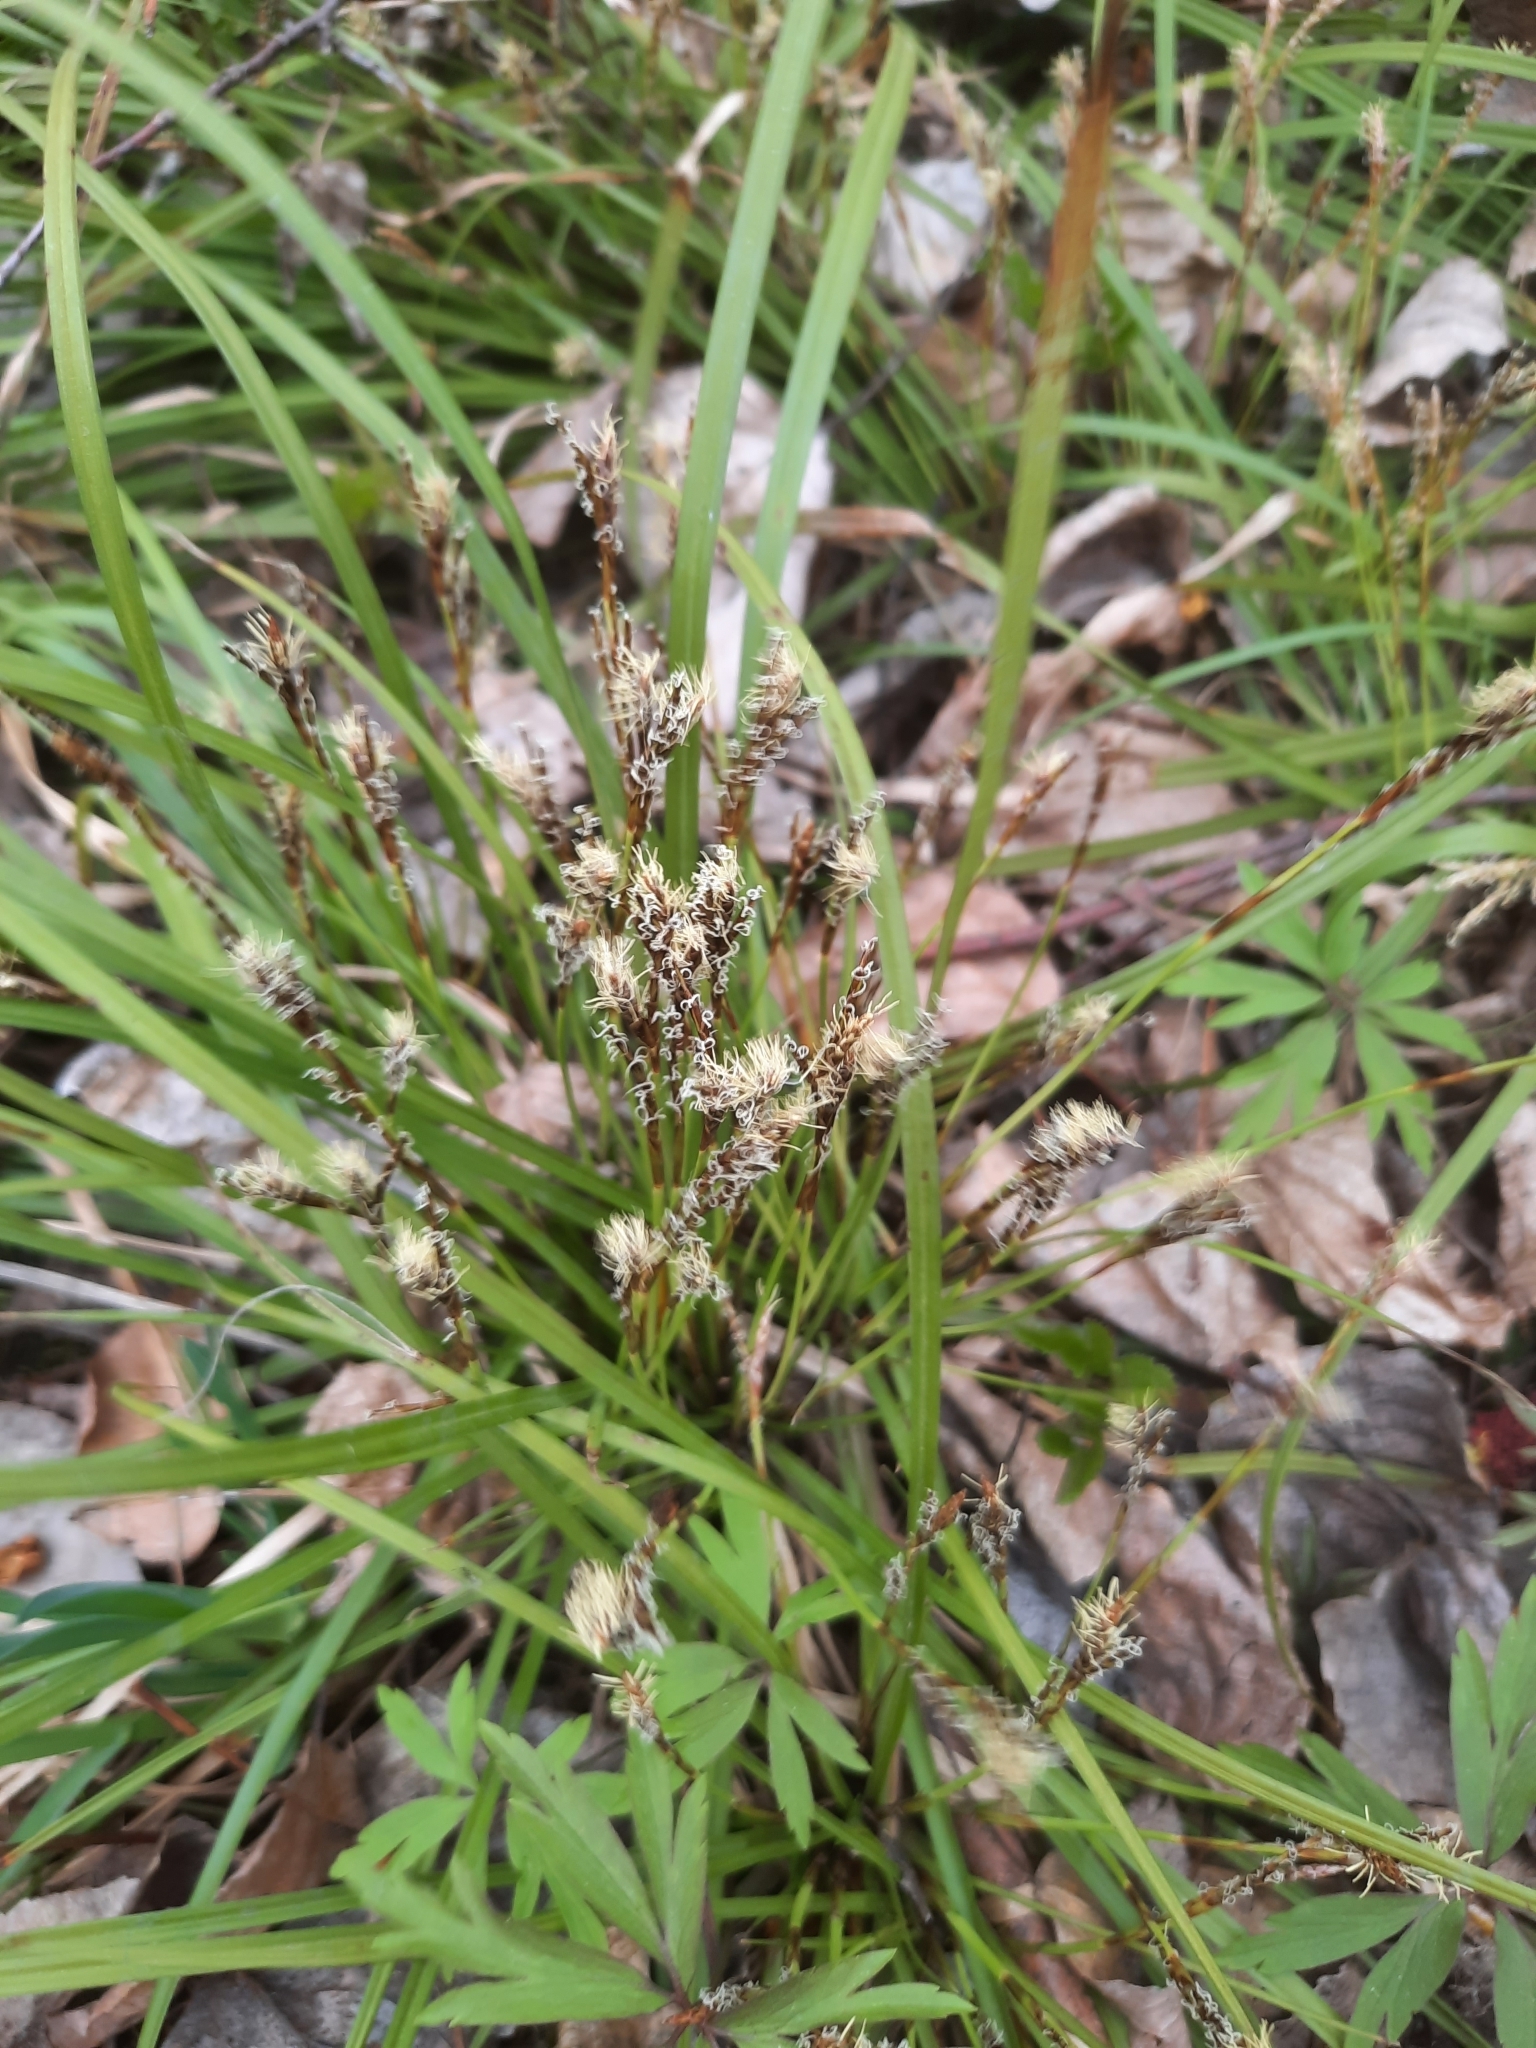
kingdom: Plantae
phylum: Tracheophyta
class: Liliopsida
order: Poales
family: Cyperaceae
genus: Carex
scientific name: Carex digitata
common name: Fingered sedge
